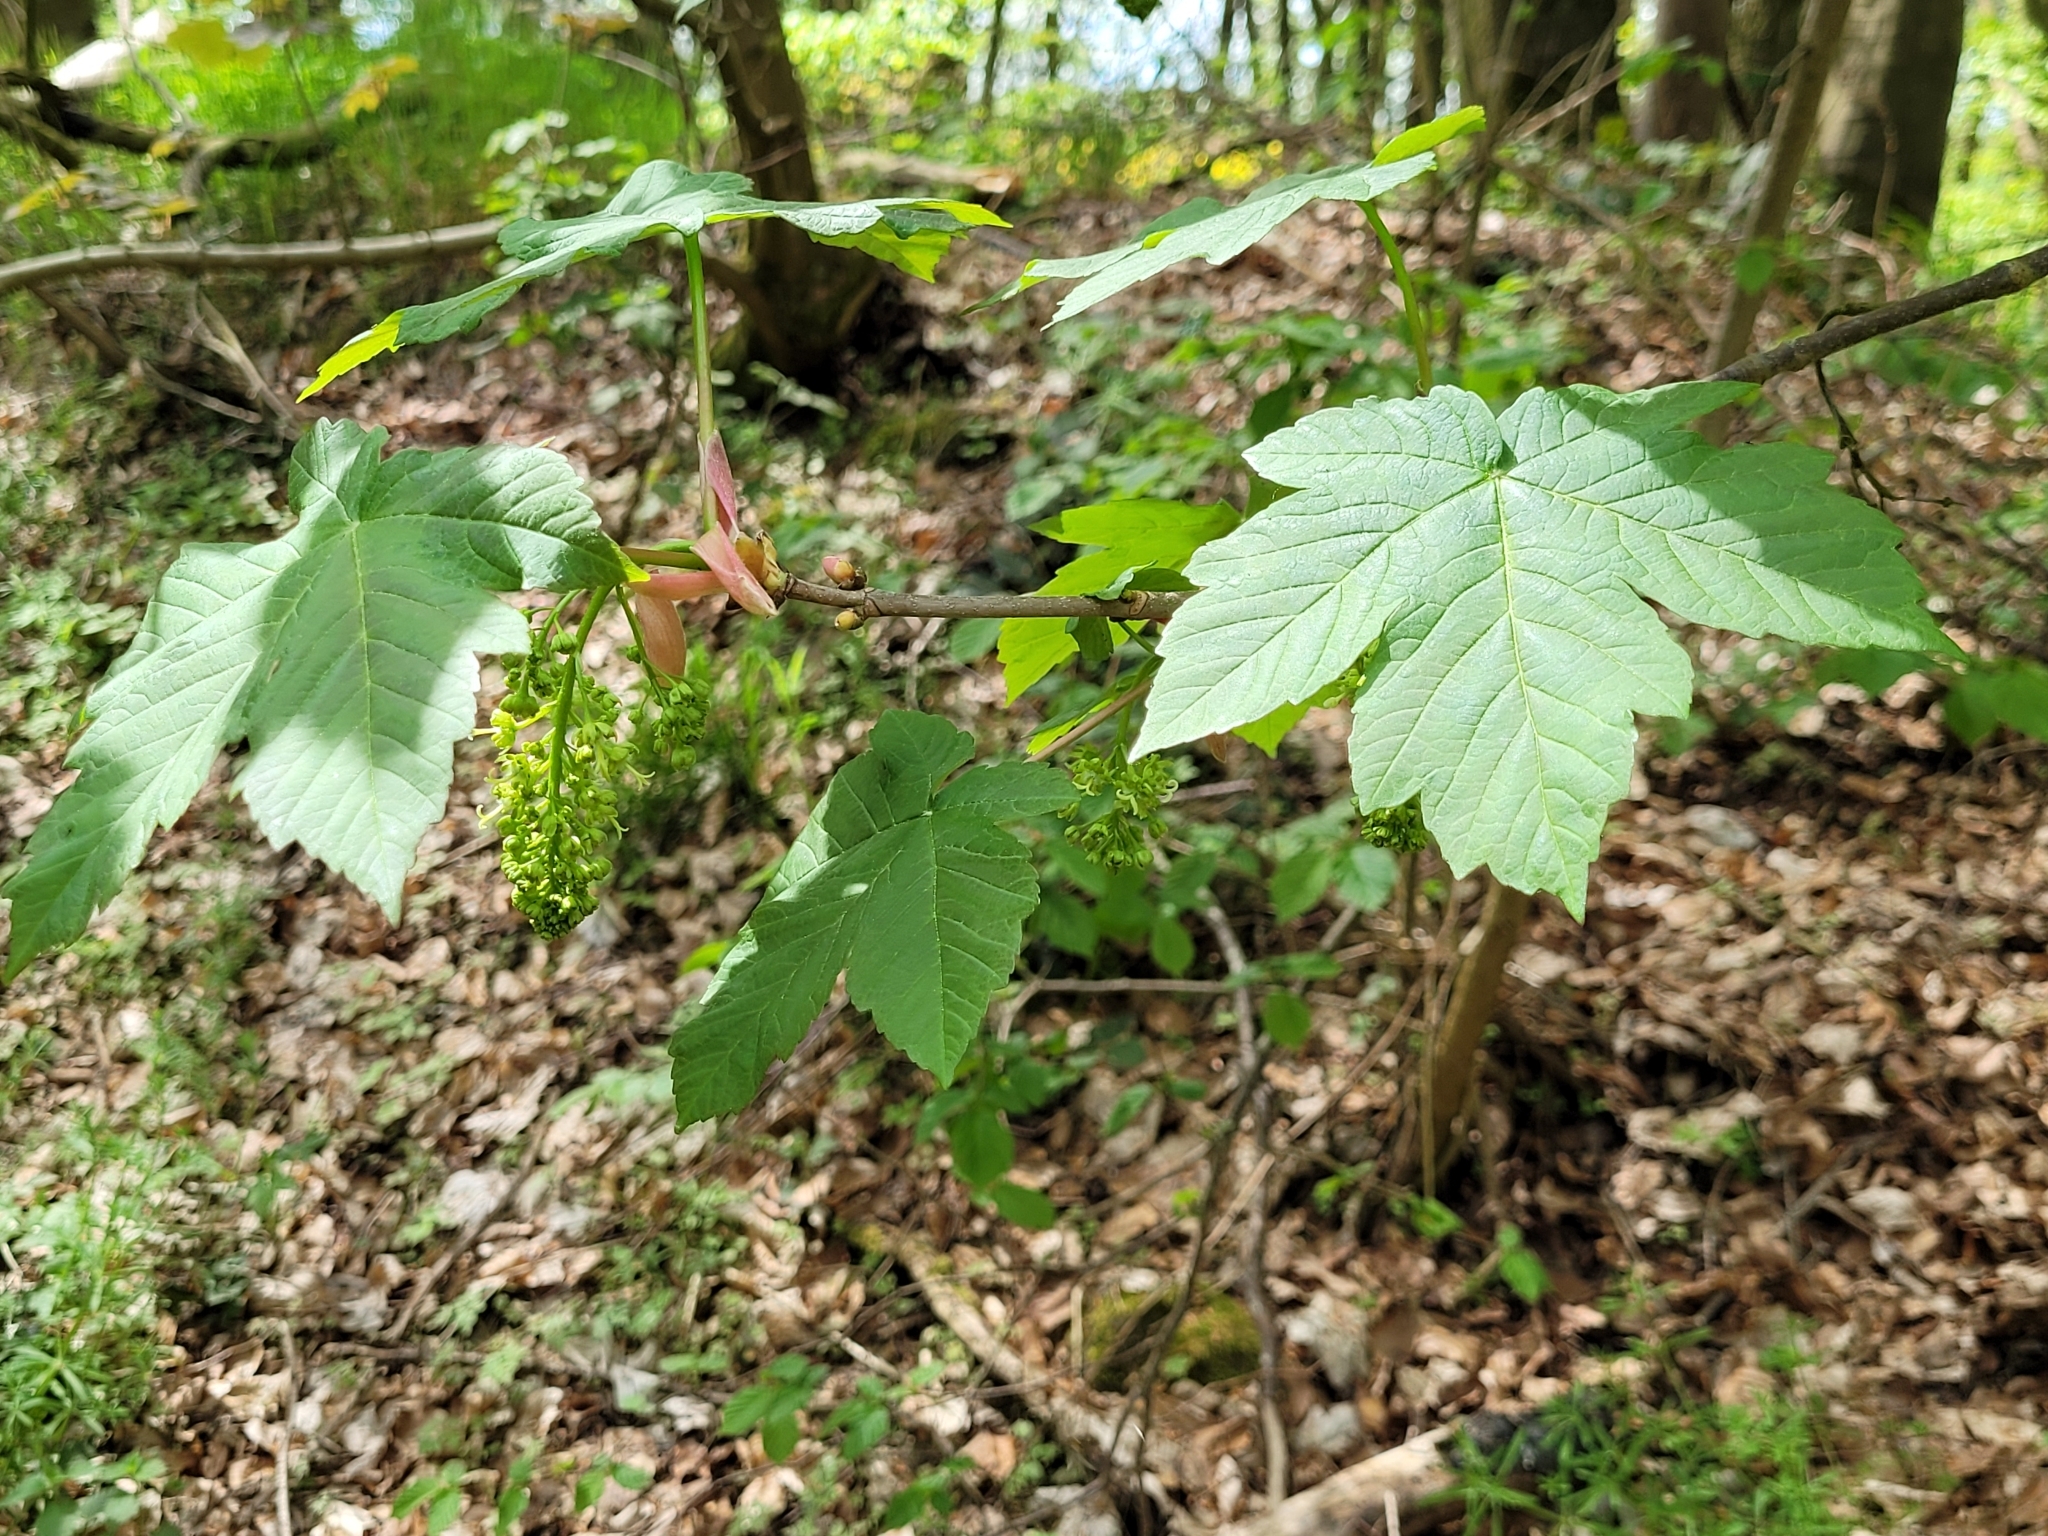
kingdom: Plantae
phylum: Tracheophyta
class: Magnoliopsida
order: Sapindales
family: Sapindaceae
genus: Acer
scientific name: Acer pseudoplatanus
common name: Sycamore
